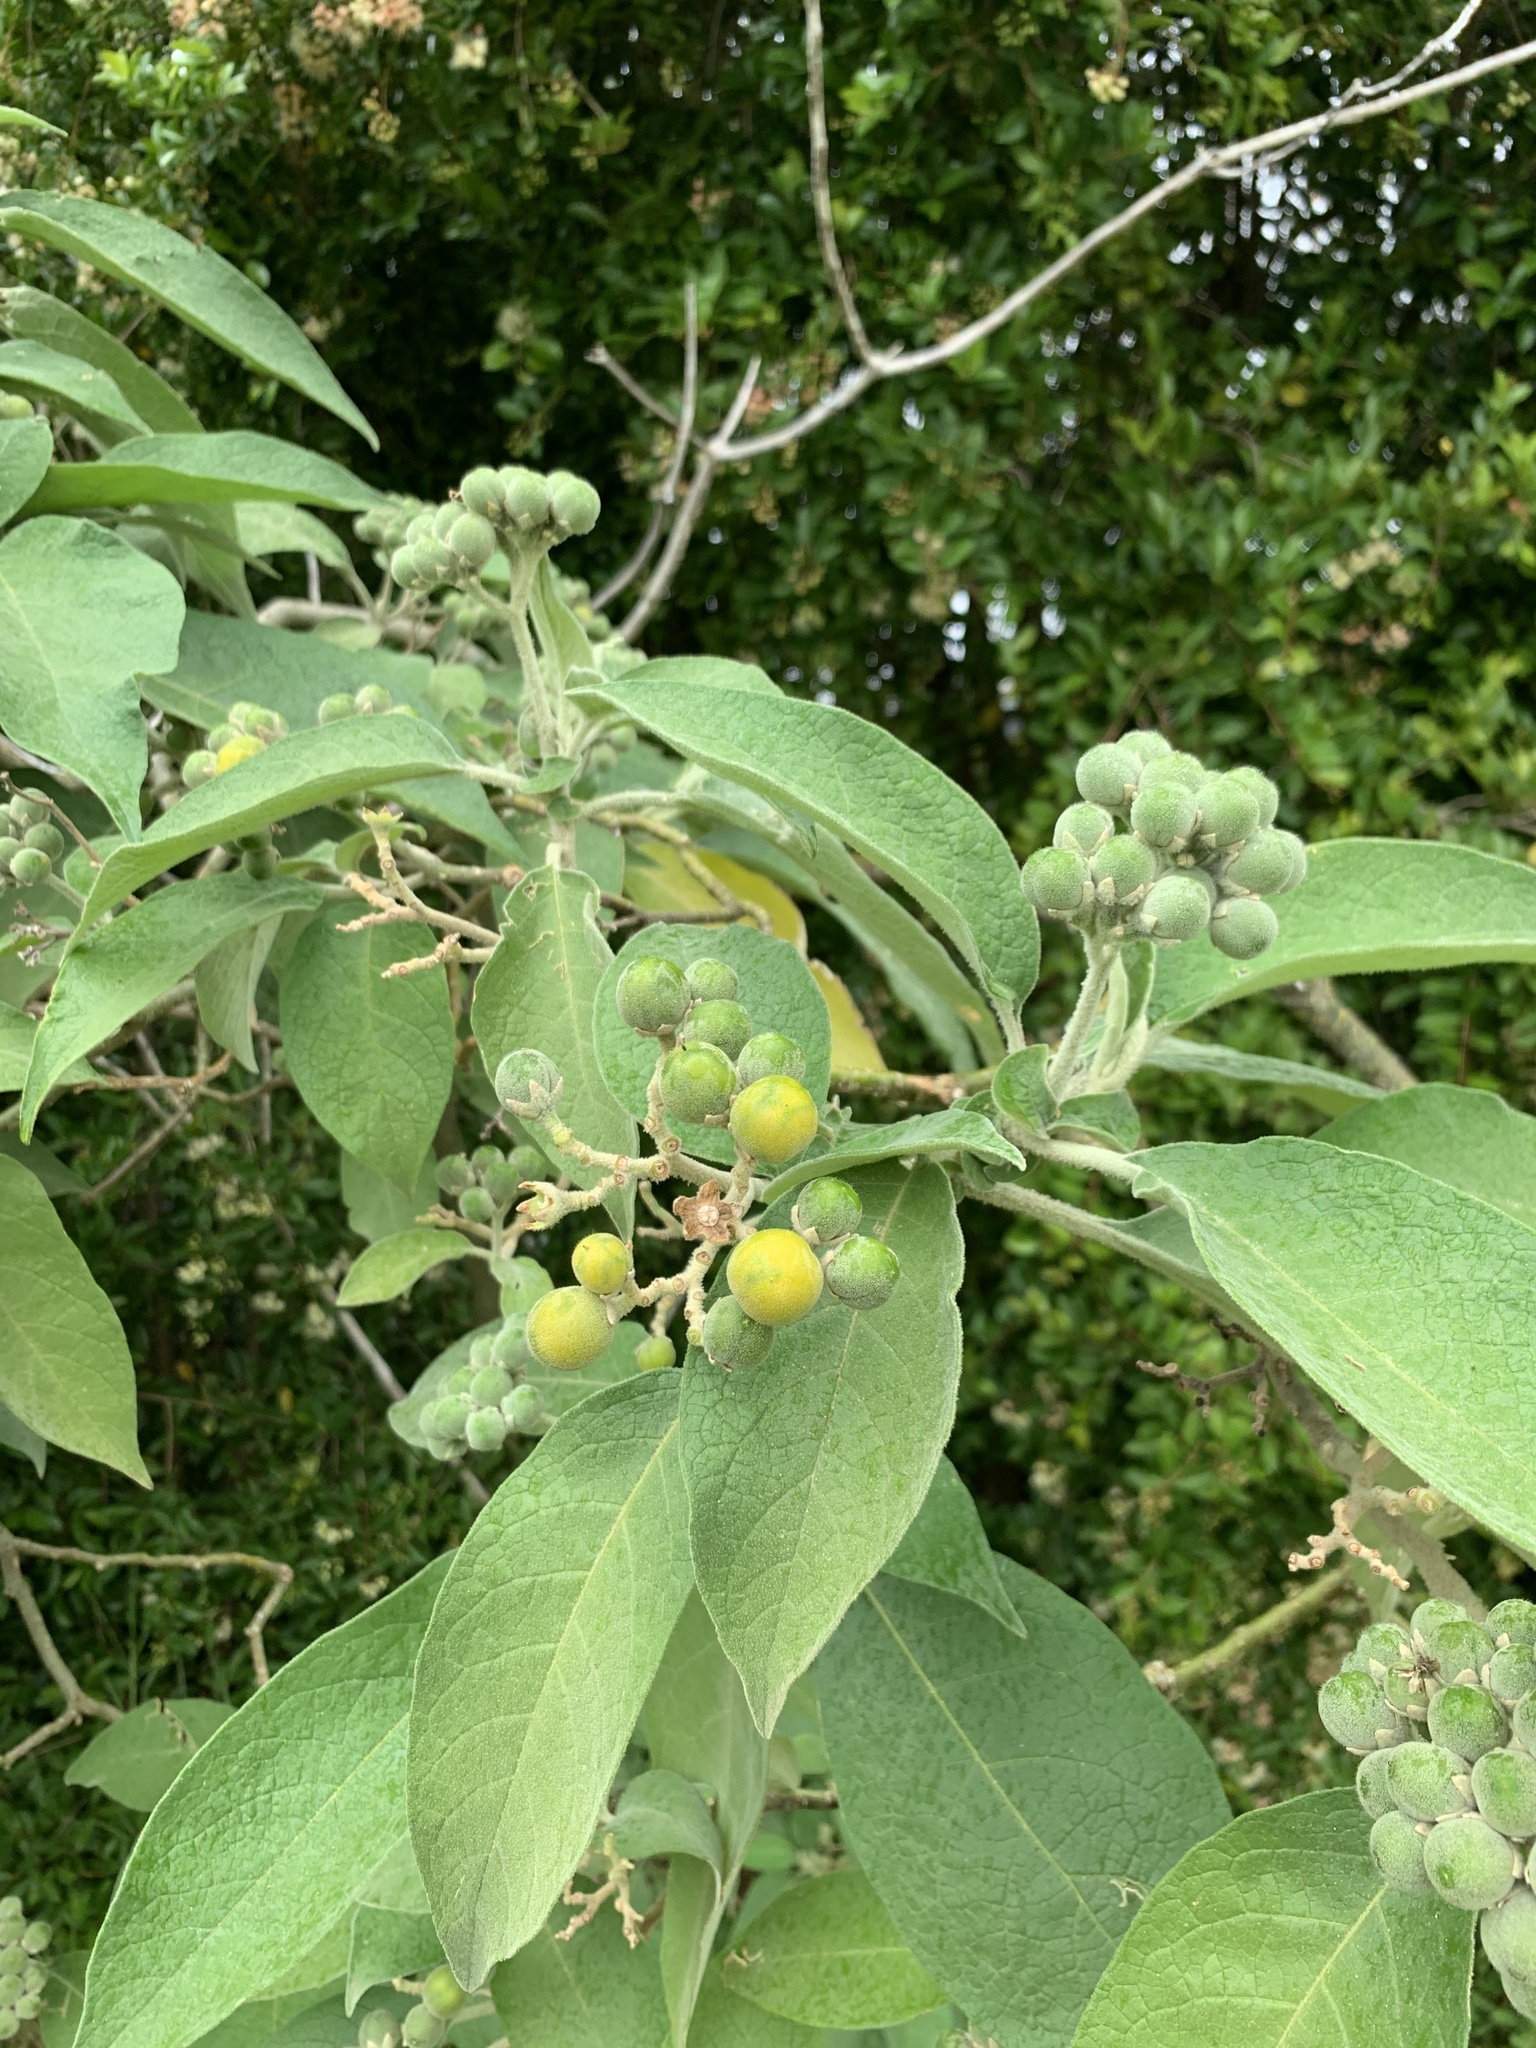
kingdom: Plantae
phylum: Tracheophyta
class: Magnoliopsida
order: Solanales
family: Solanaceae
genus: Solanum
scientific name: Solanum mauritianum
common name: Earleaf nightshade
